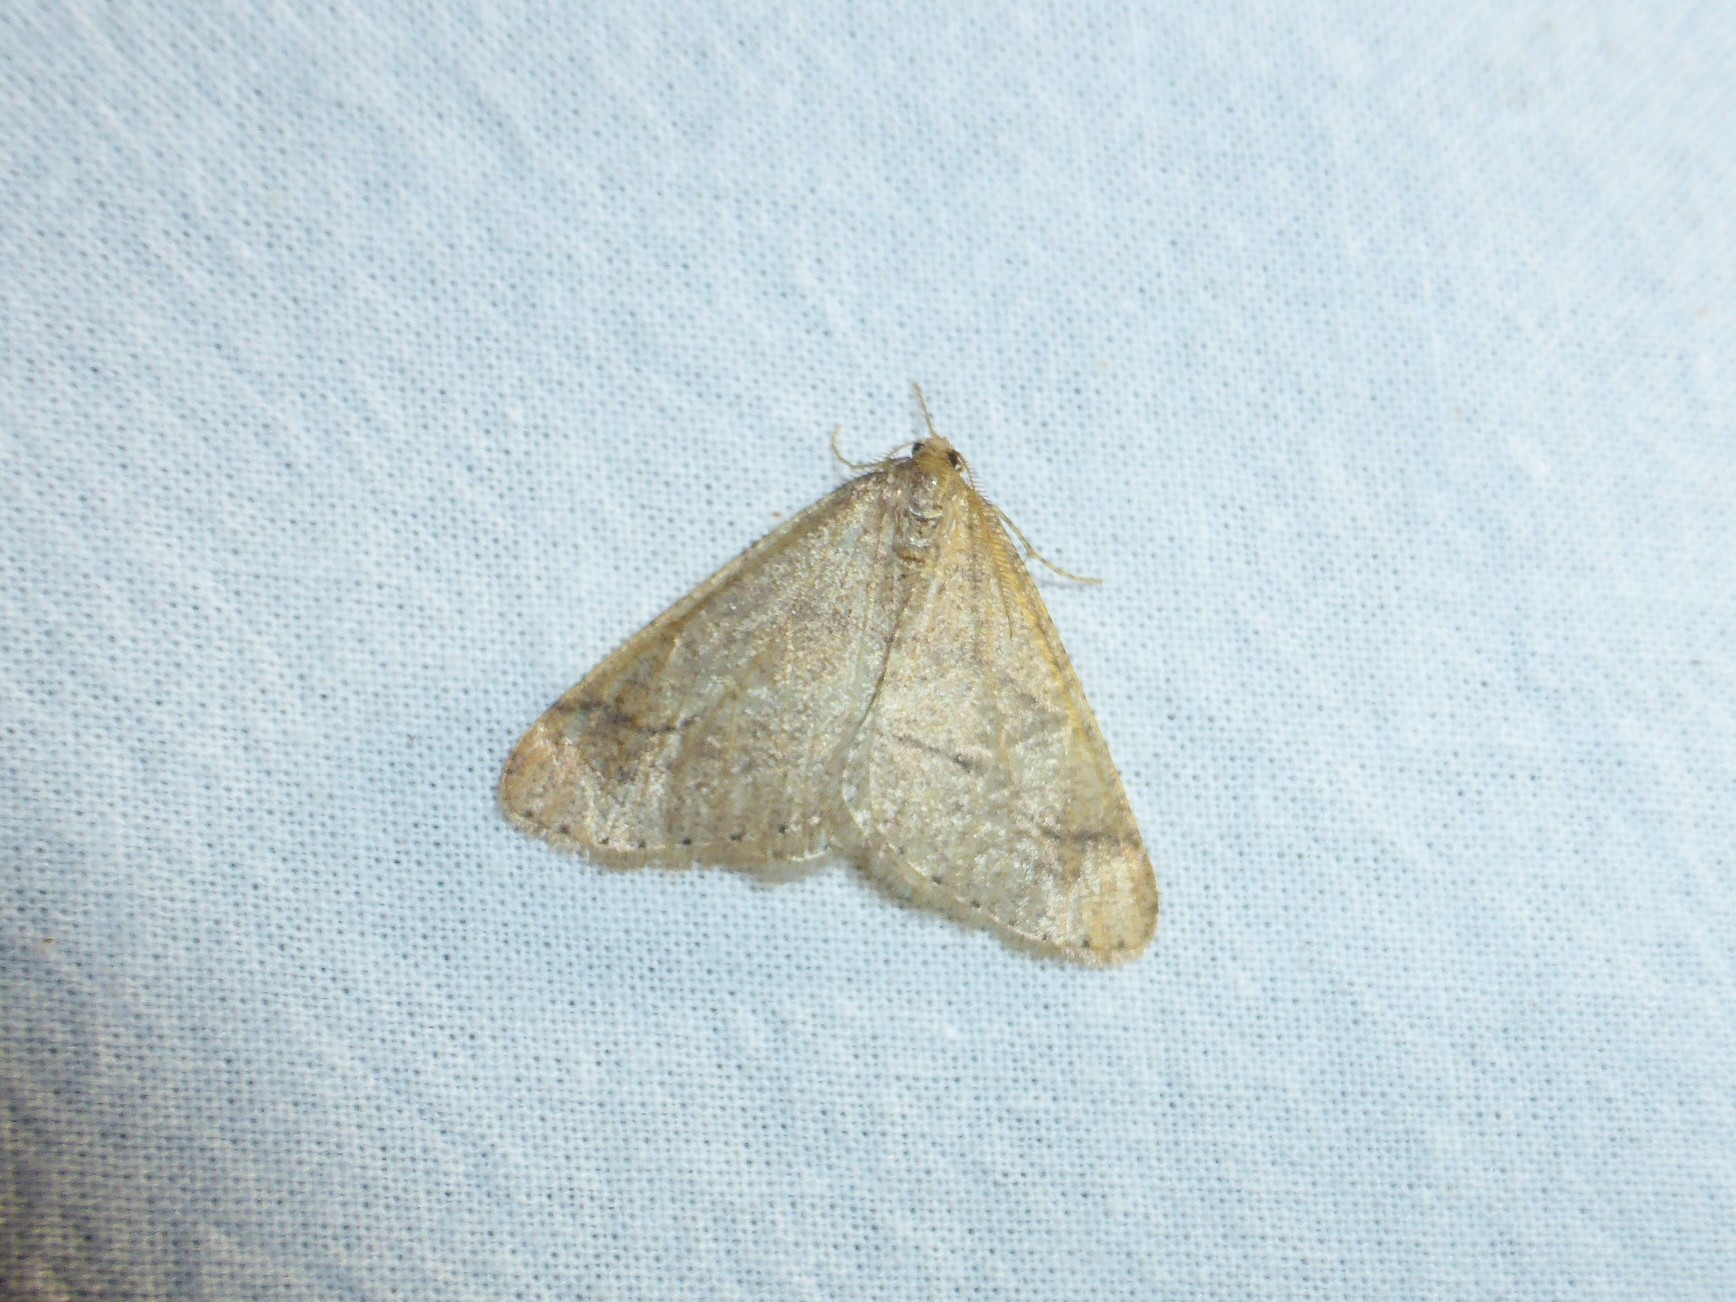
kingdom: Animalia
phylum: Arthropoda
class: Insecta
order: Lepidoptera
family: Geometridae
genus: Agriopis
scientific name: Agriopis marginaria
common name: Dotted border
